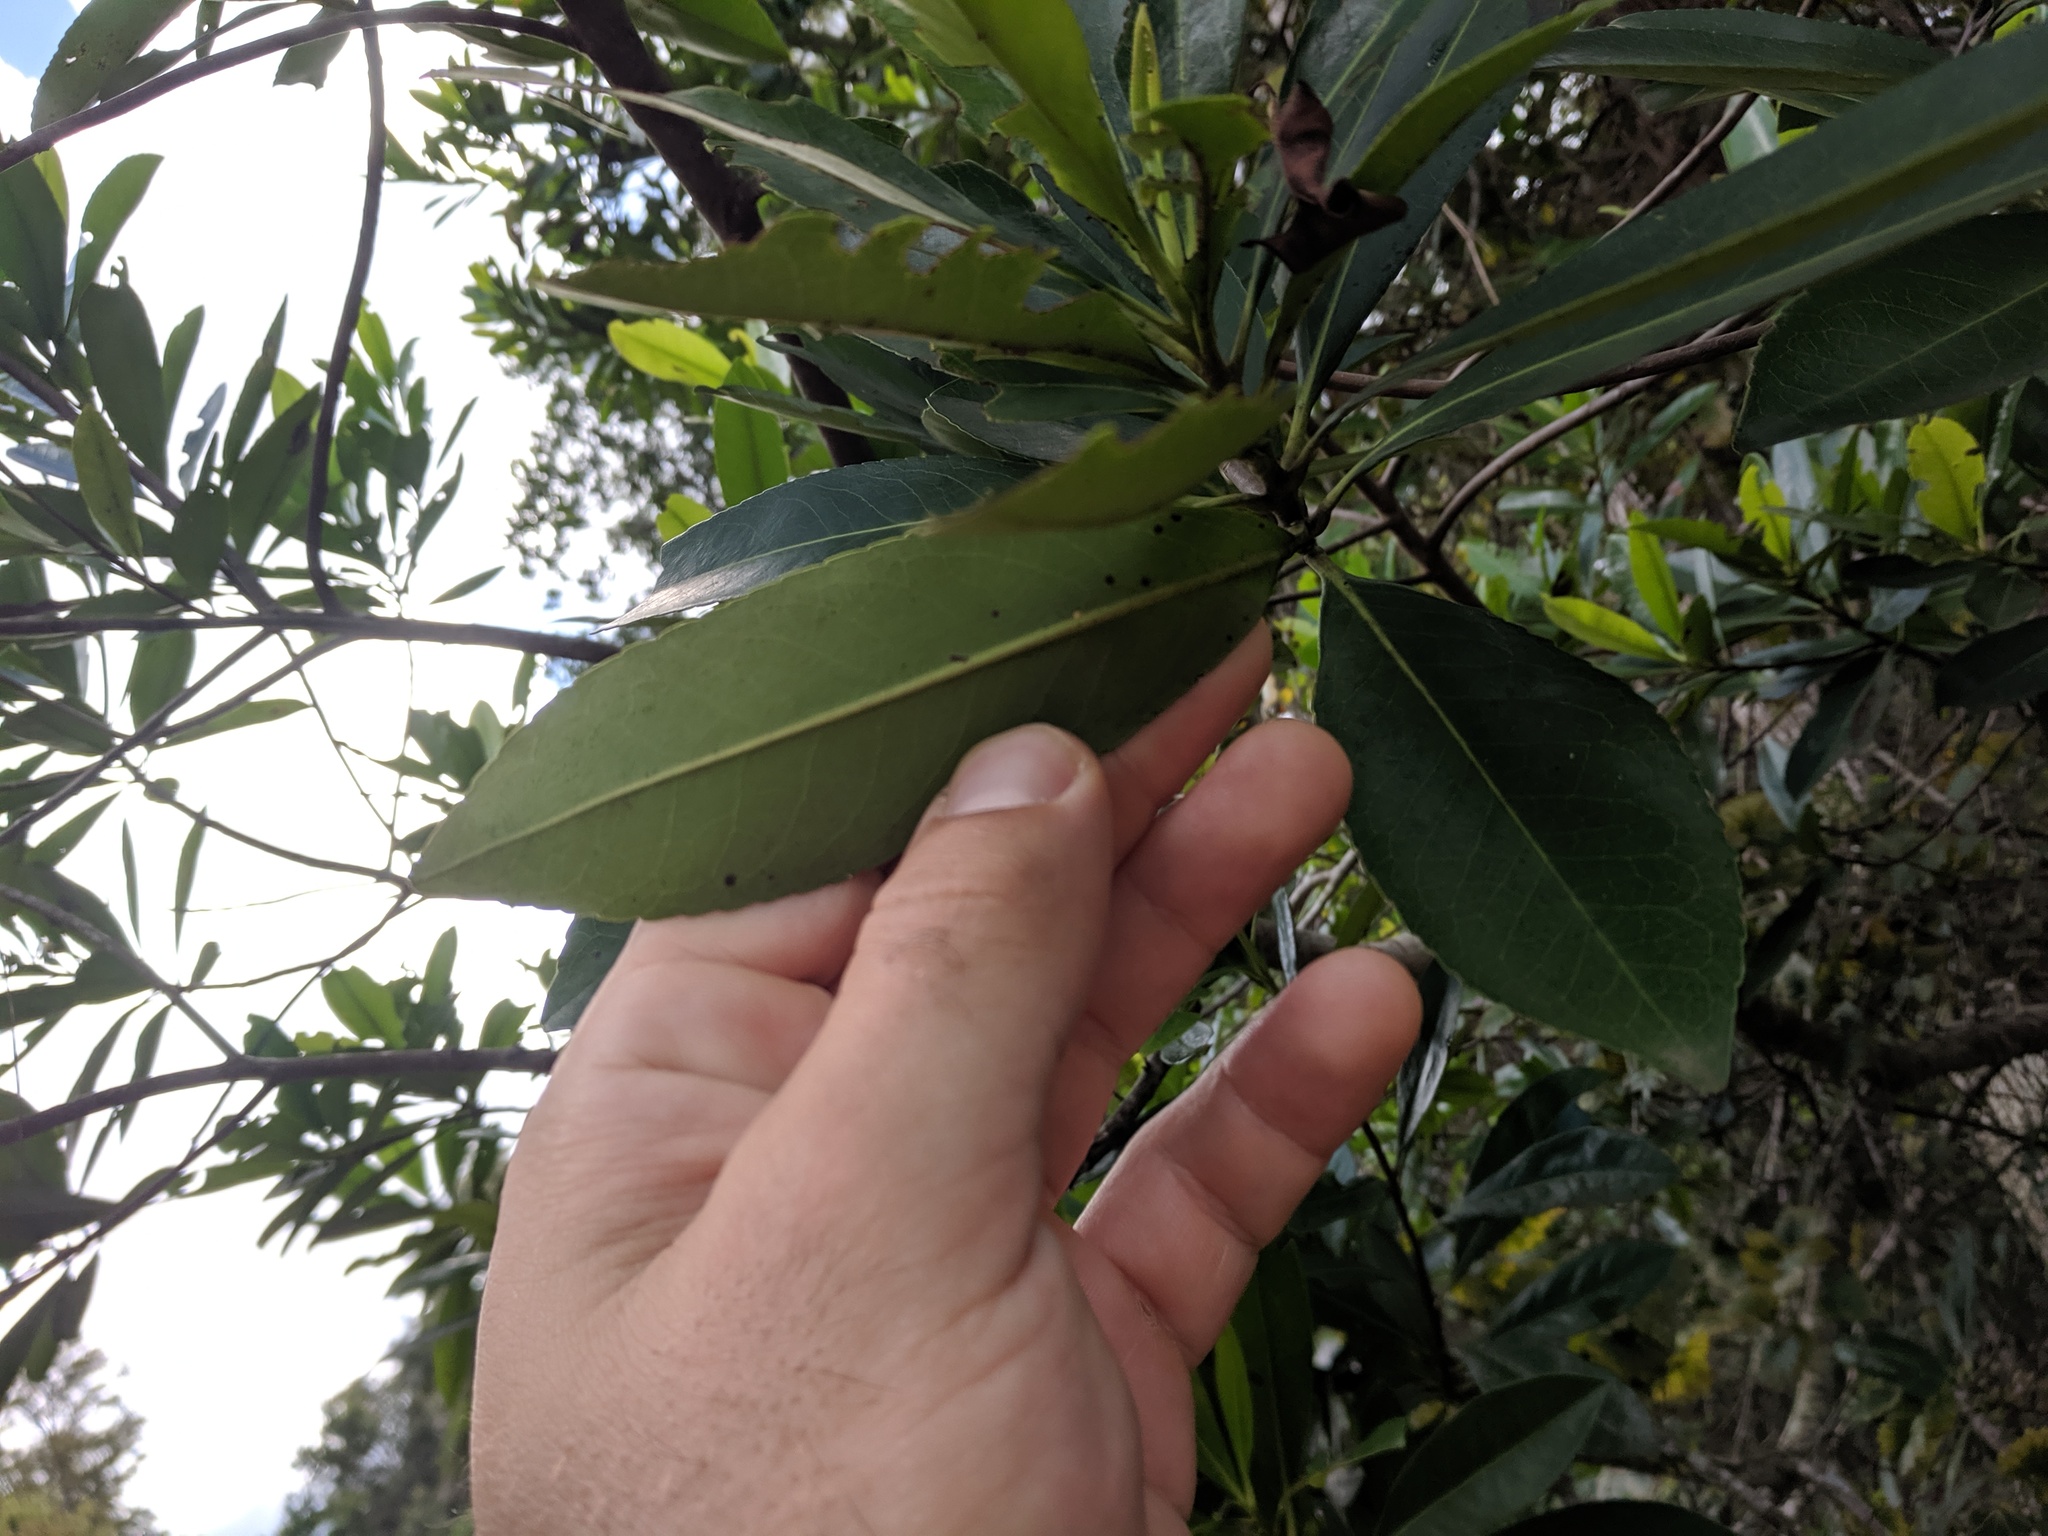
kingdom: Plantae
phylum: Tracheophyta
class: Magnoliopsida
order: Ericales
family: Theaceae
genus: Gordonia
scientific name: Gordonia lasianthus
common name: Loblolly bay
